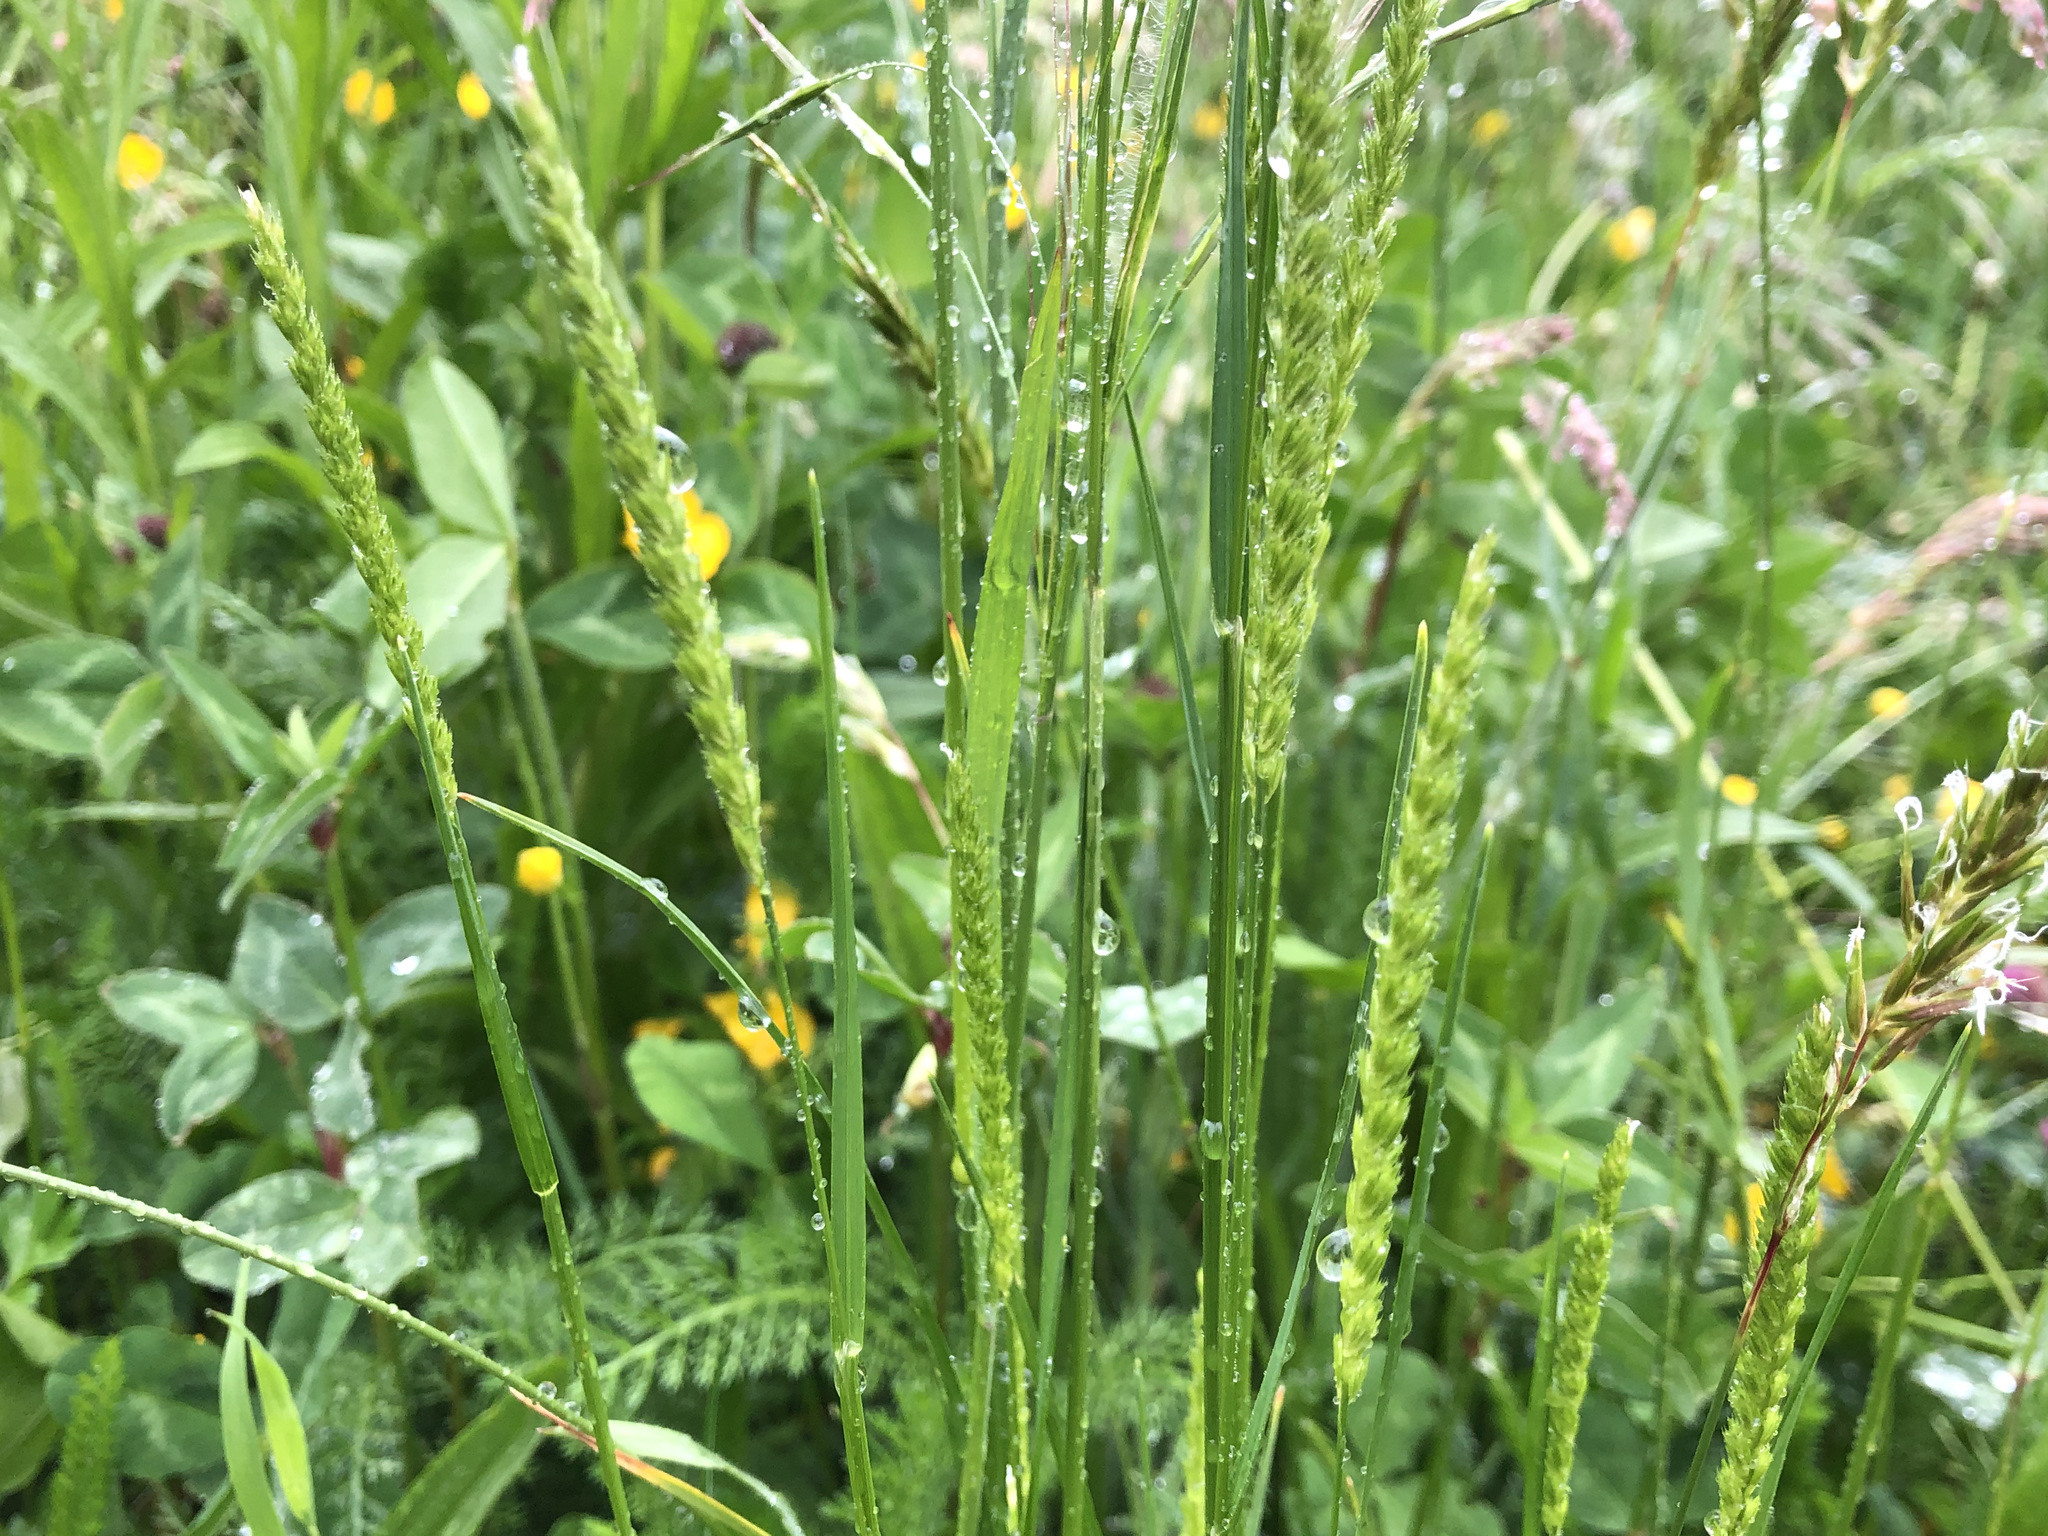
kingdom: Plantae
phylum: Tracheophyta
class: Liliopsida
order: Poales
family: Poaceae
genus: Cynosurus
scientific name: Cynosurus cristatus
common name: Crested dog's-tail
